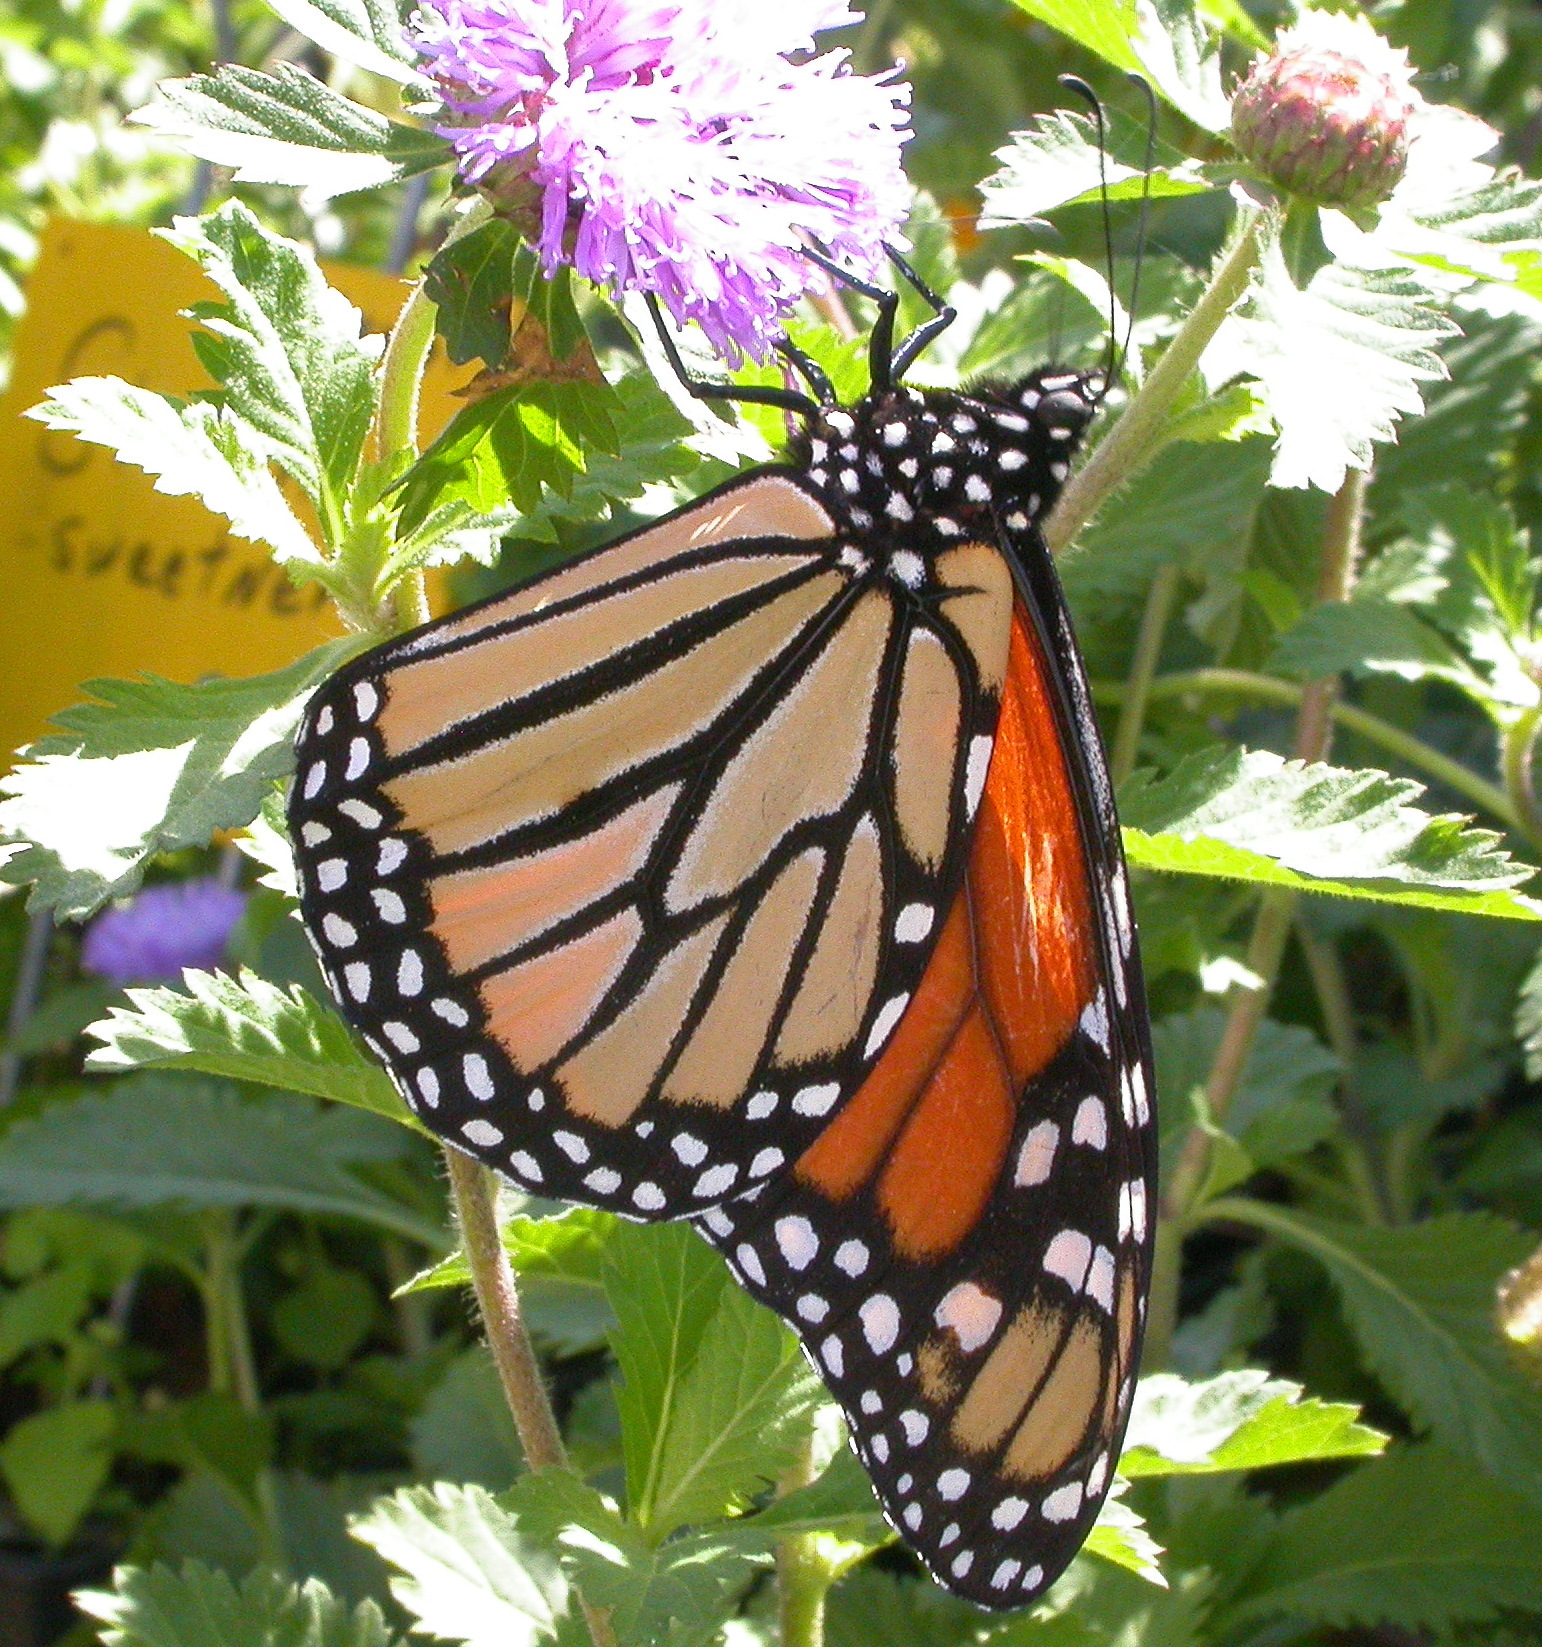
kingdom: Animalia
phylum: Arthropoda
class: Insecta
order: Lepidoptera
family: Nymphalidae
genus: Danaus
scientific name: Danaus plexippus
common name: Monarch
